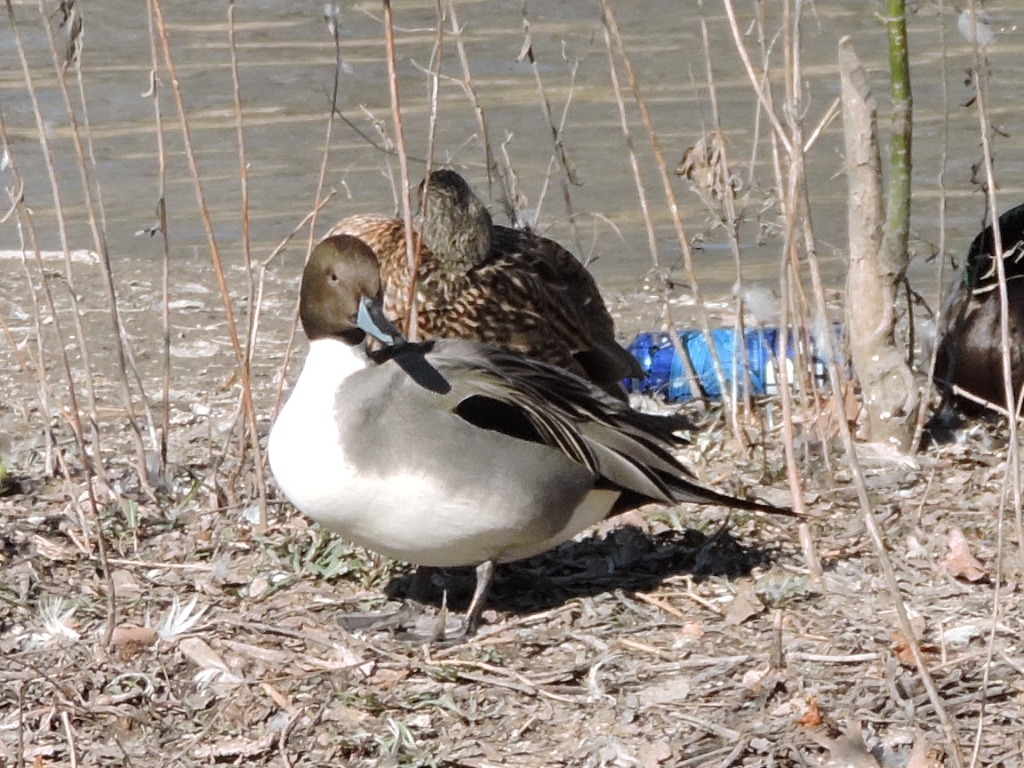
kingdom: Animalia
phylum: Chordata
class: Aves
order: Anseriformes
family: Anatidae
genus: Anas
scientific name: Anas acuta
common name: Northern pintail
